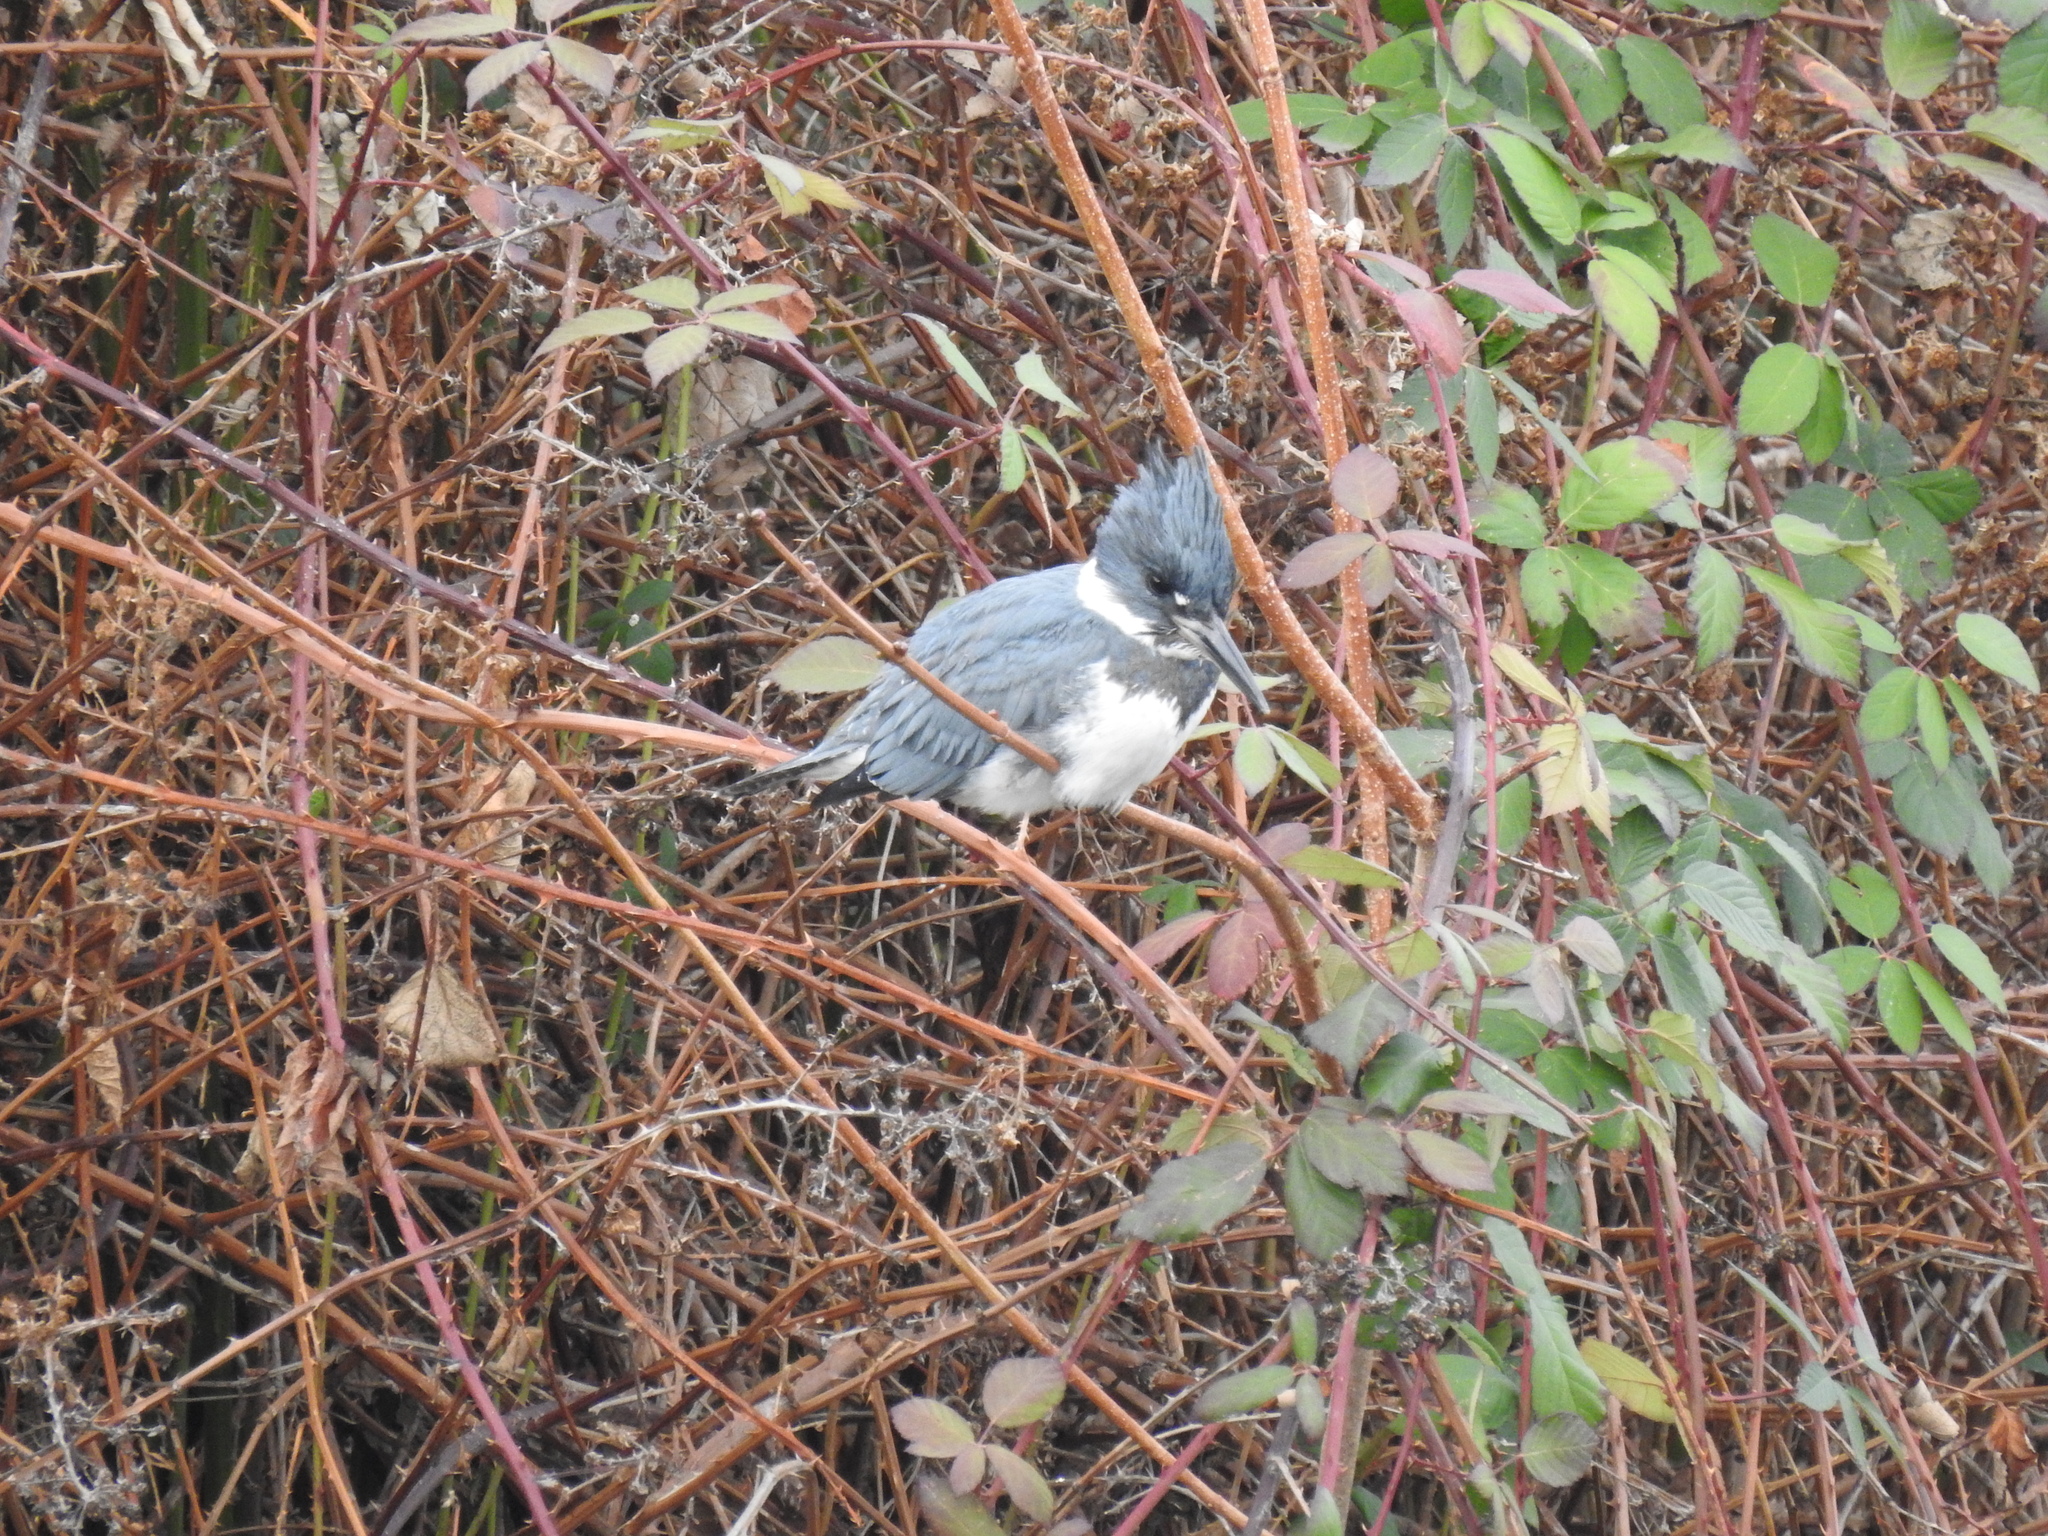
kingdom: Animalia
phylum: Chordata
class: Aves
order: Coraciiformes
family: Alcedinidae
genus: Megaceryle
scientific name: Megaceryle alcyon
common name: Belted kingfisher
